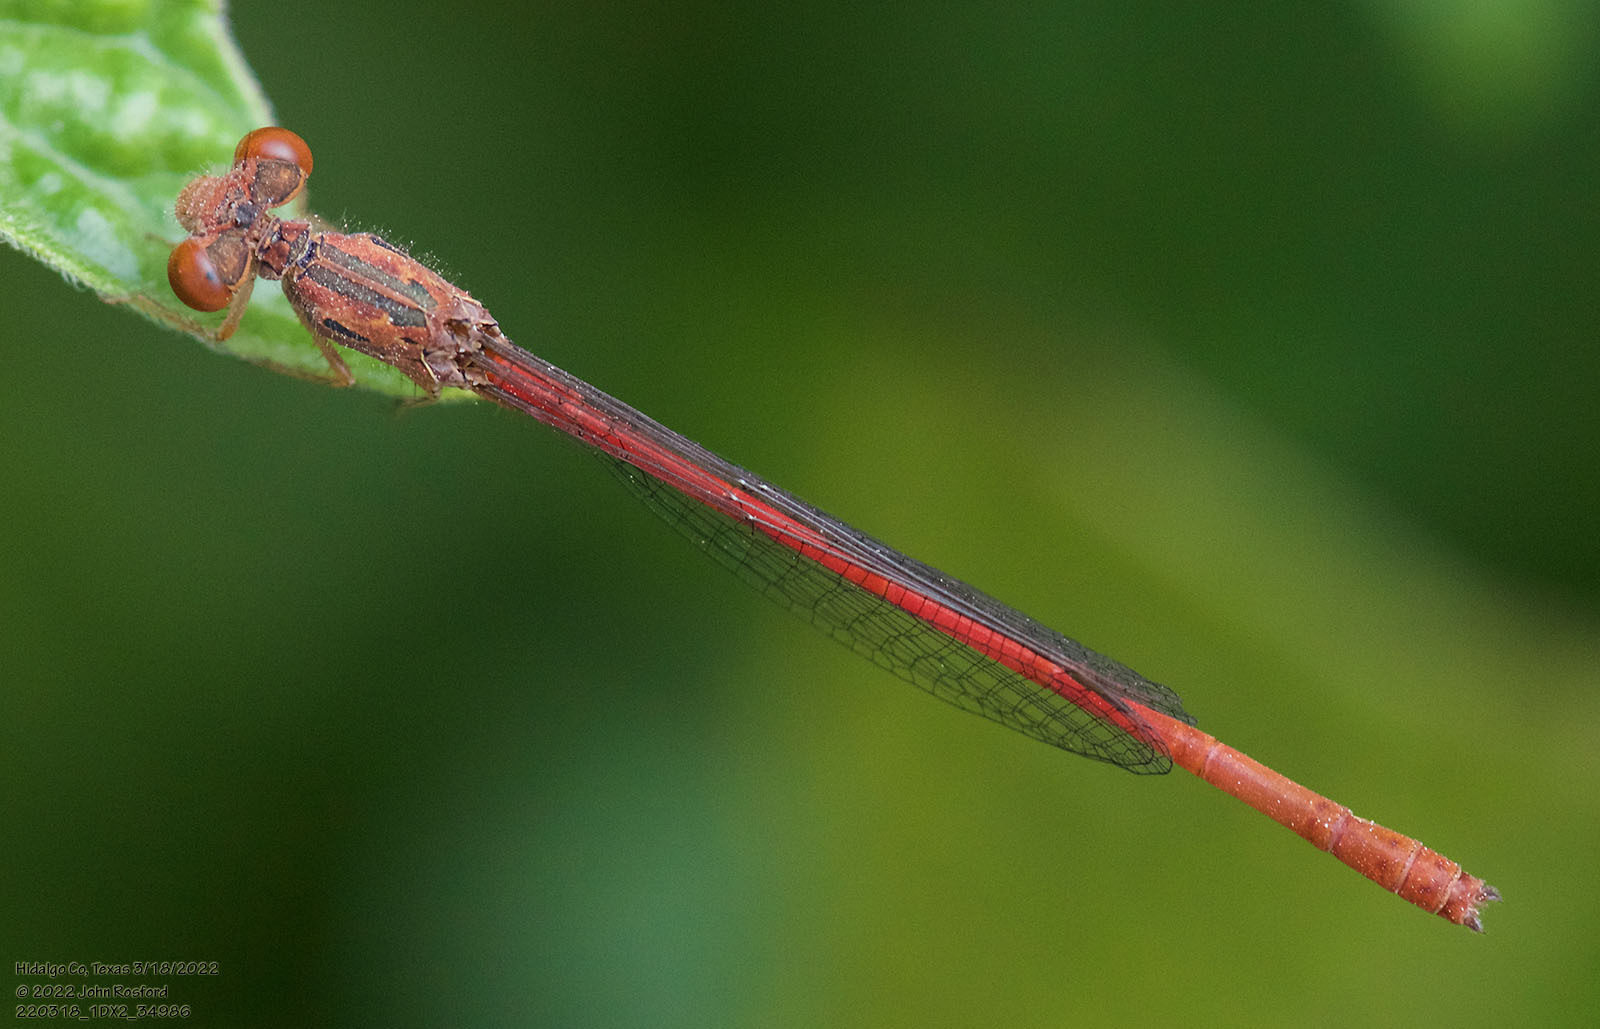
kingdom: Animalia
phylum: Arthropoda
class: Insecta
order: Odonata
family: Coenagrionidae
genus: Telebasis
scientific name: Telebasis salva
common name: Desert firetail
